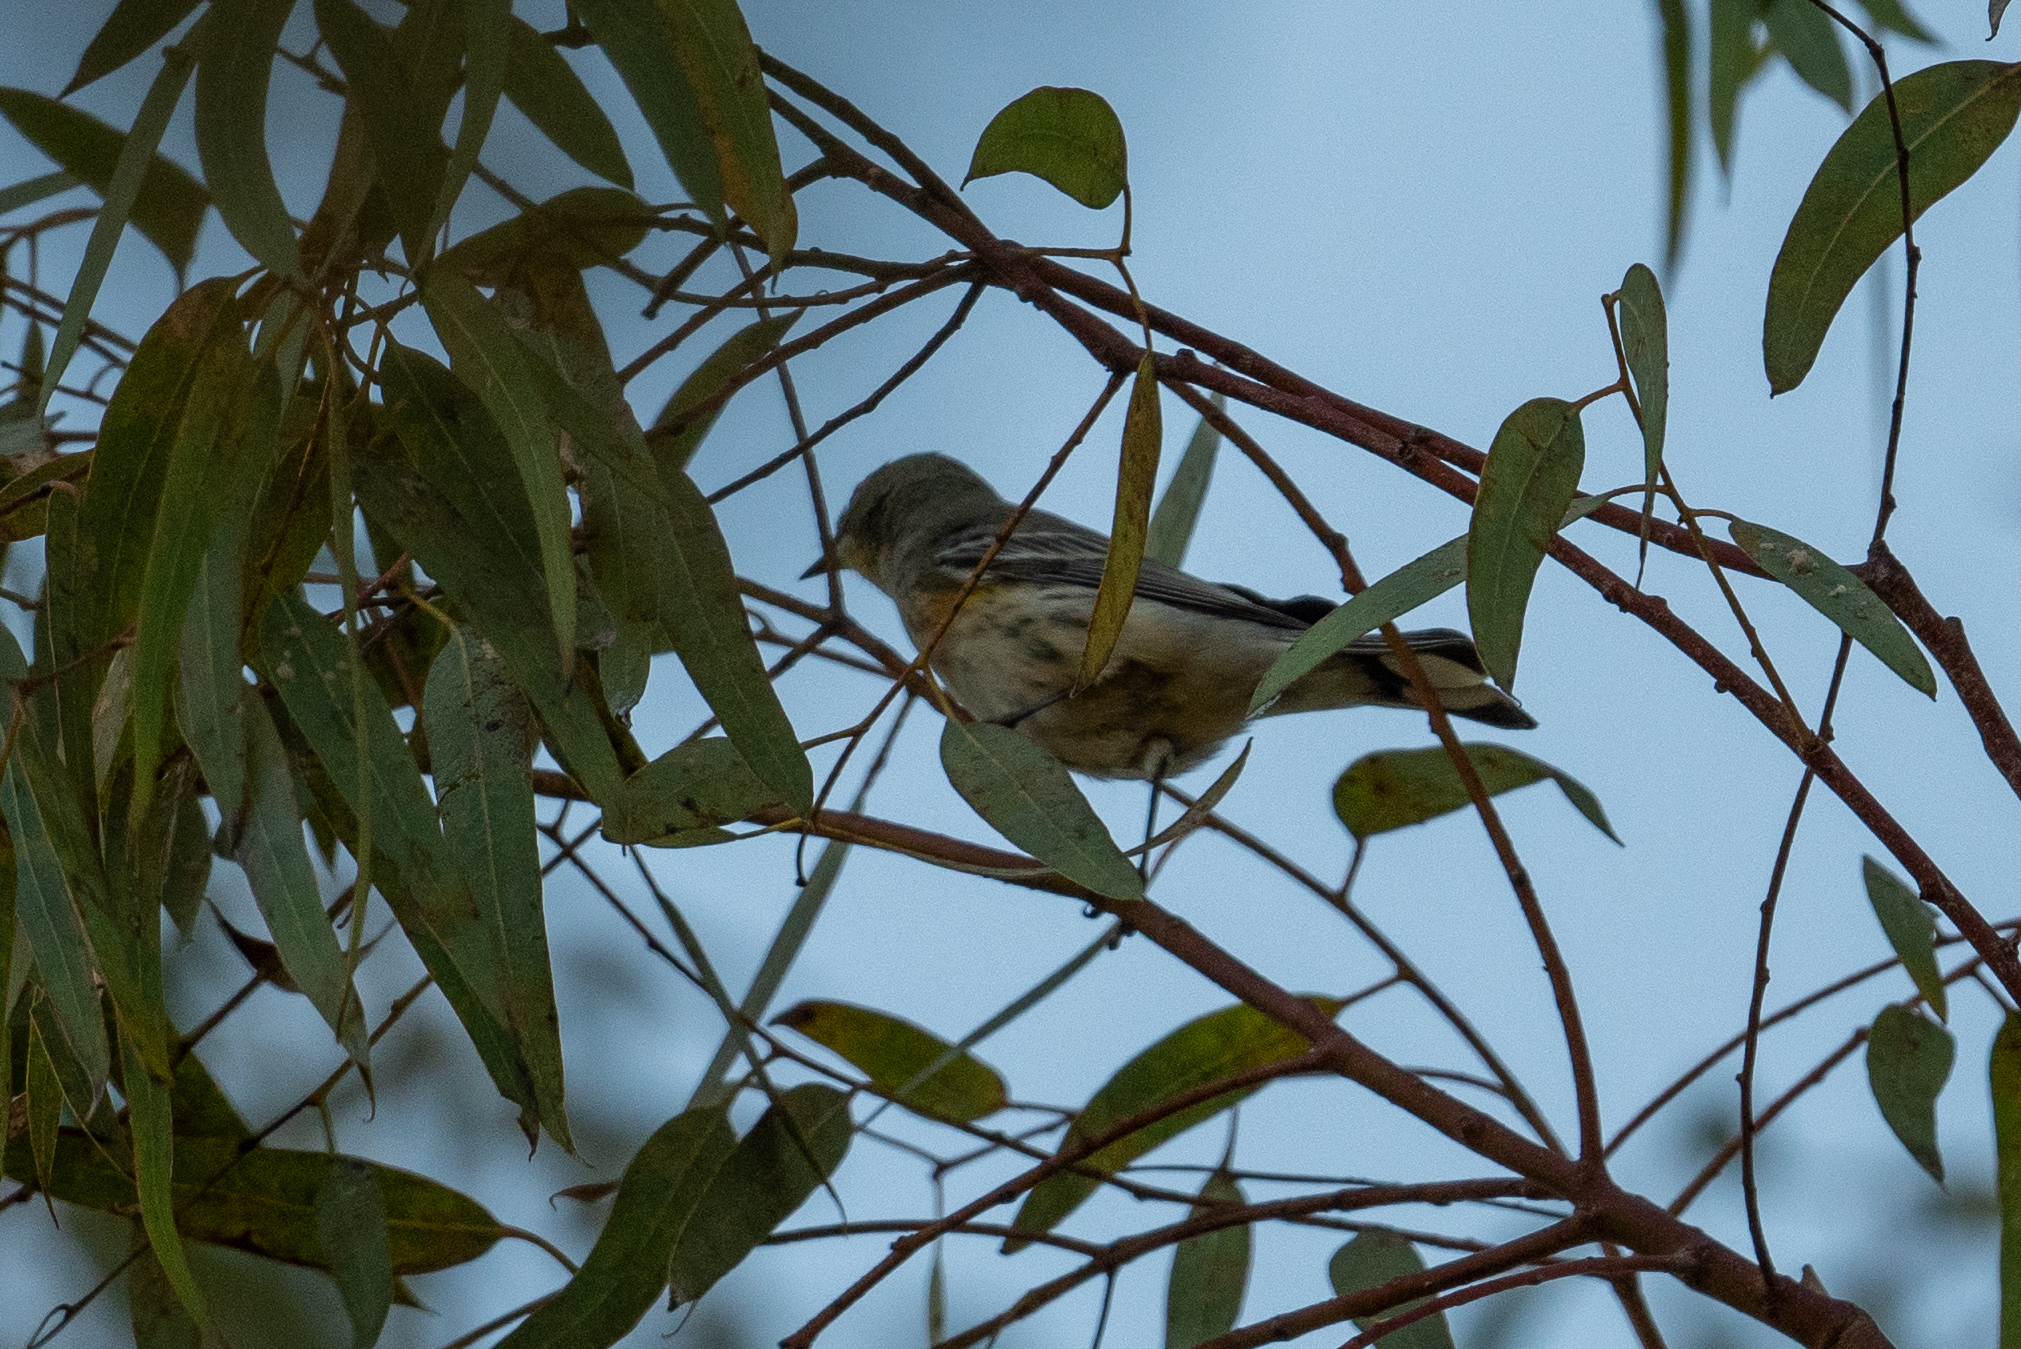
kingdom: Animalia
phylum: Chordata
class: Aves
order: Passeriformes
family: Parulidae
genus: Setophaga
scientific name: Setophaga coronata
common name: Myrtle warbler
